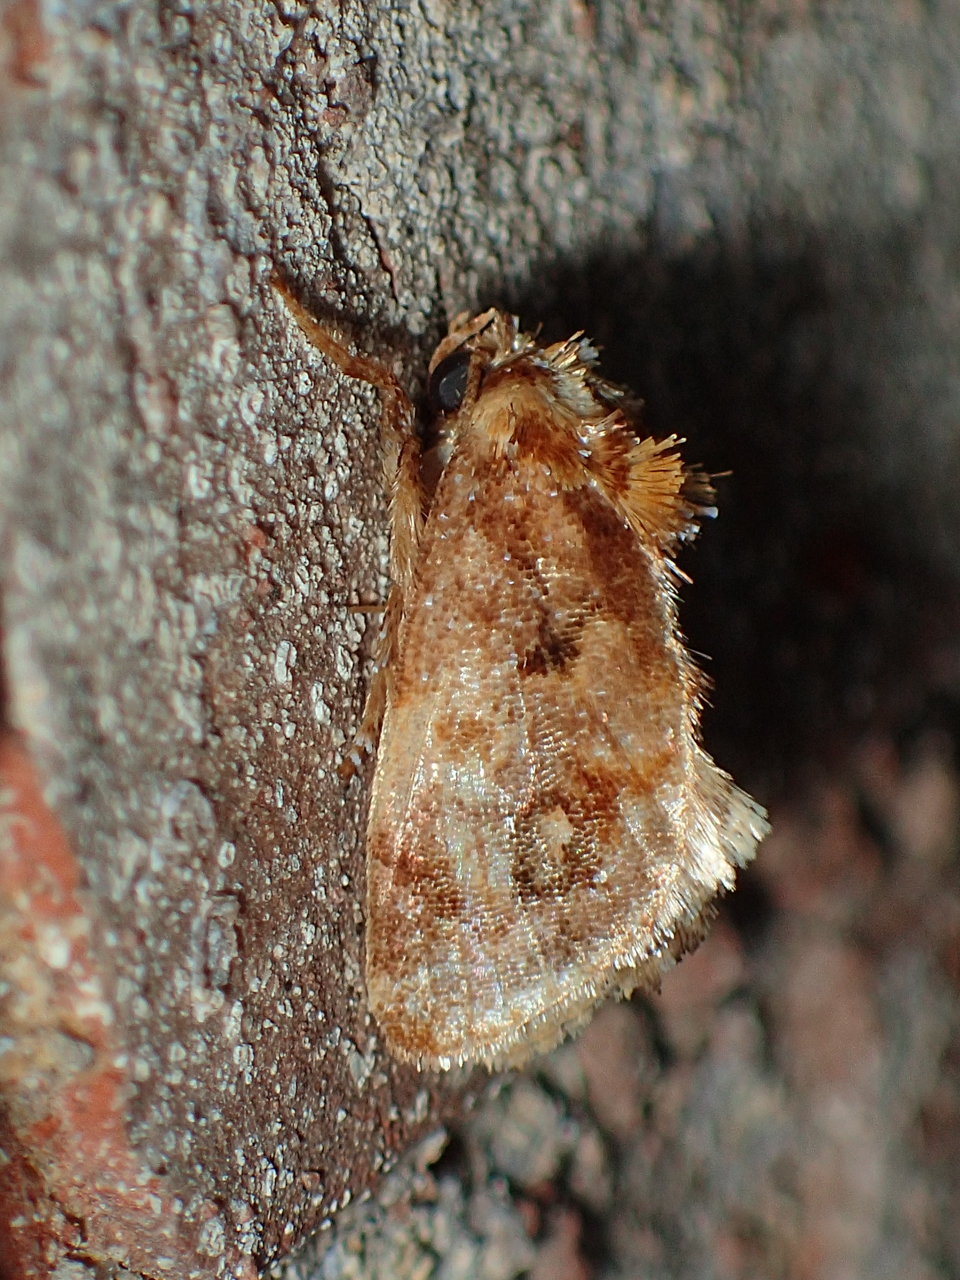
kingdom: Animalia
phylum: Arthropoda
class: Insecta
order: Lepidoptera
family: Limacodidae
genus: Isochaetes
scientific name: Isochaetes beutenmuelleri
